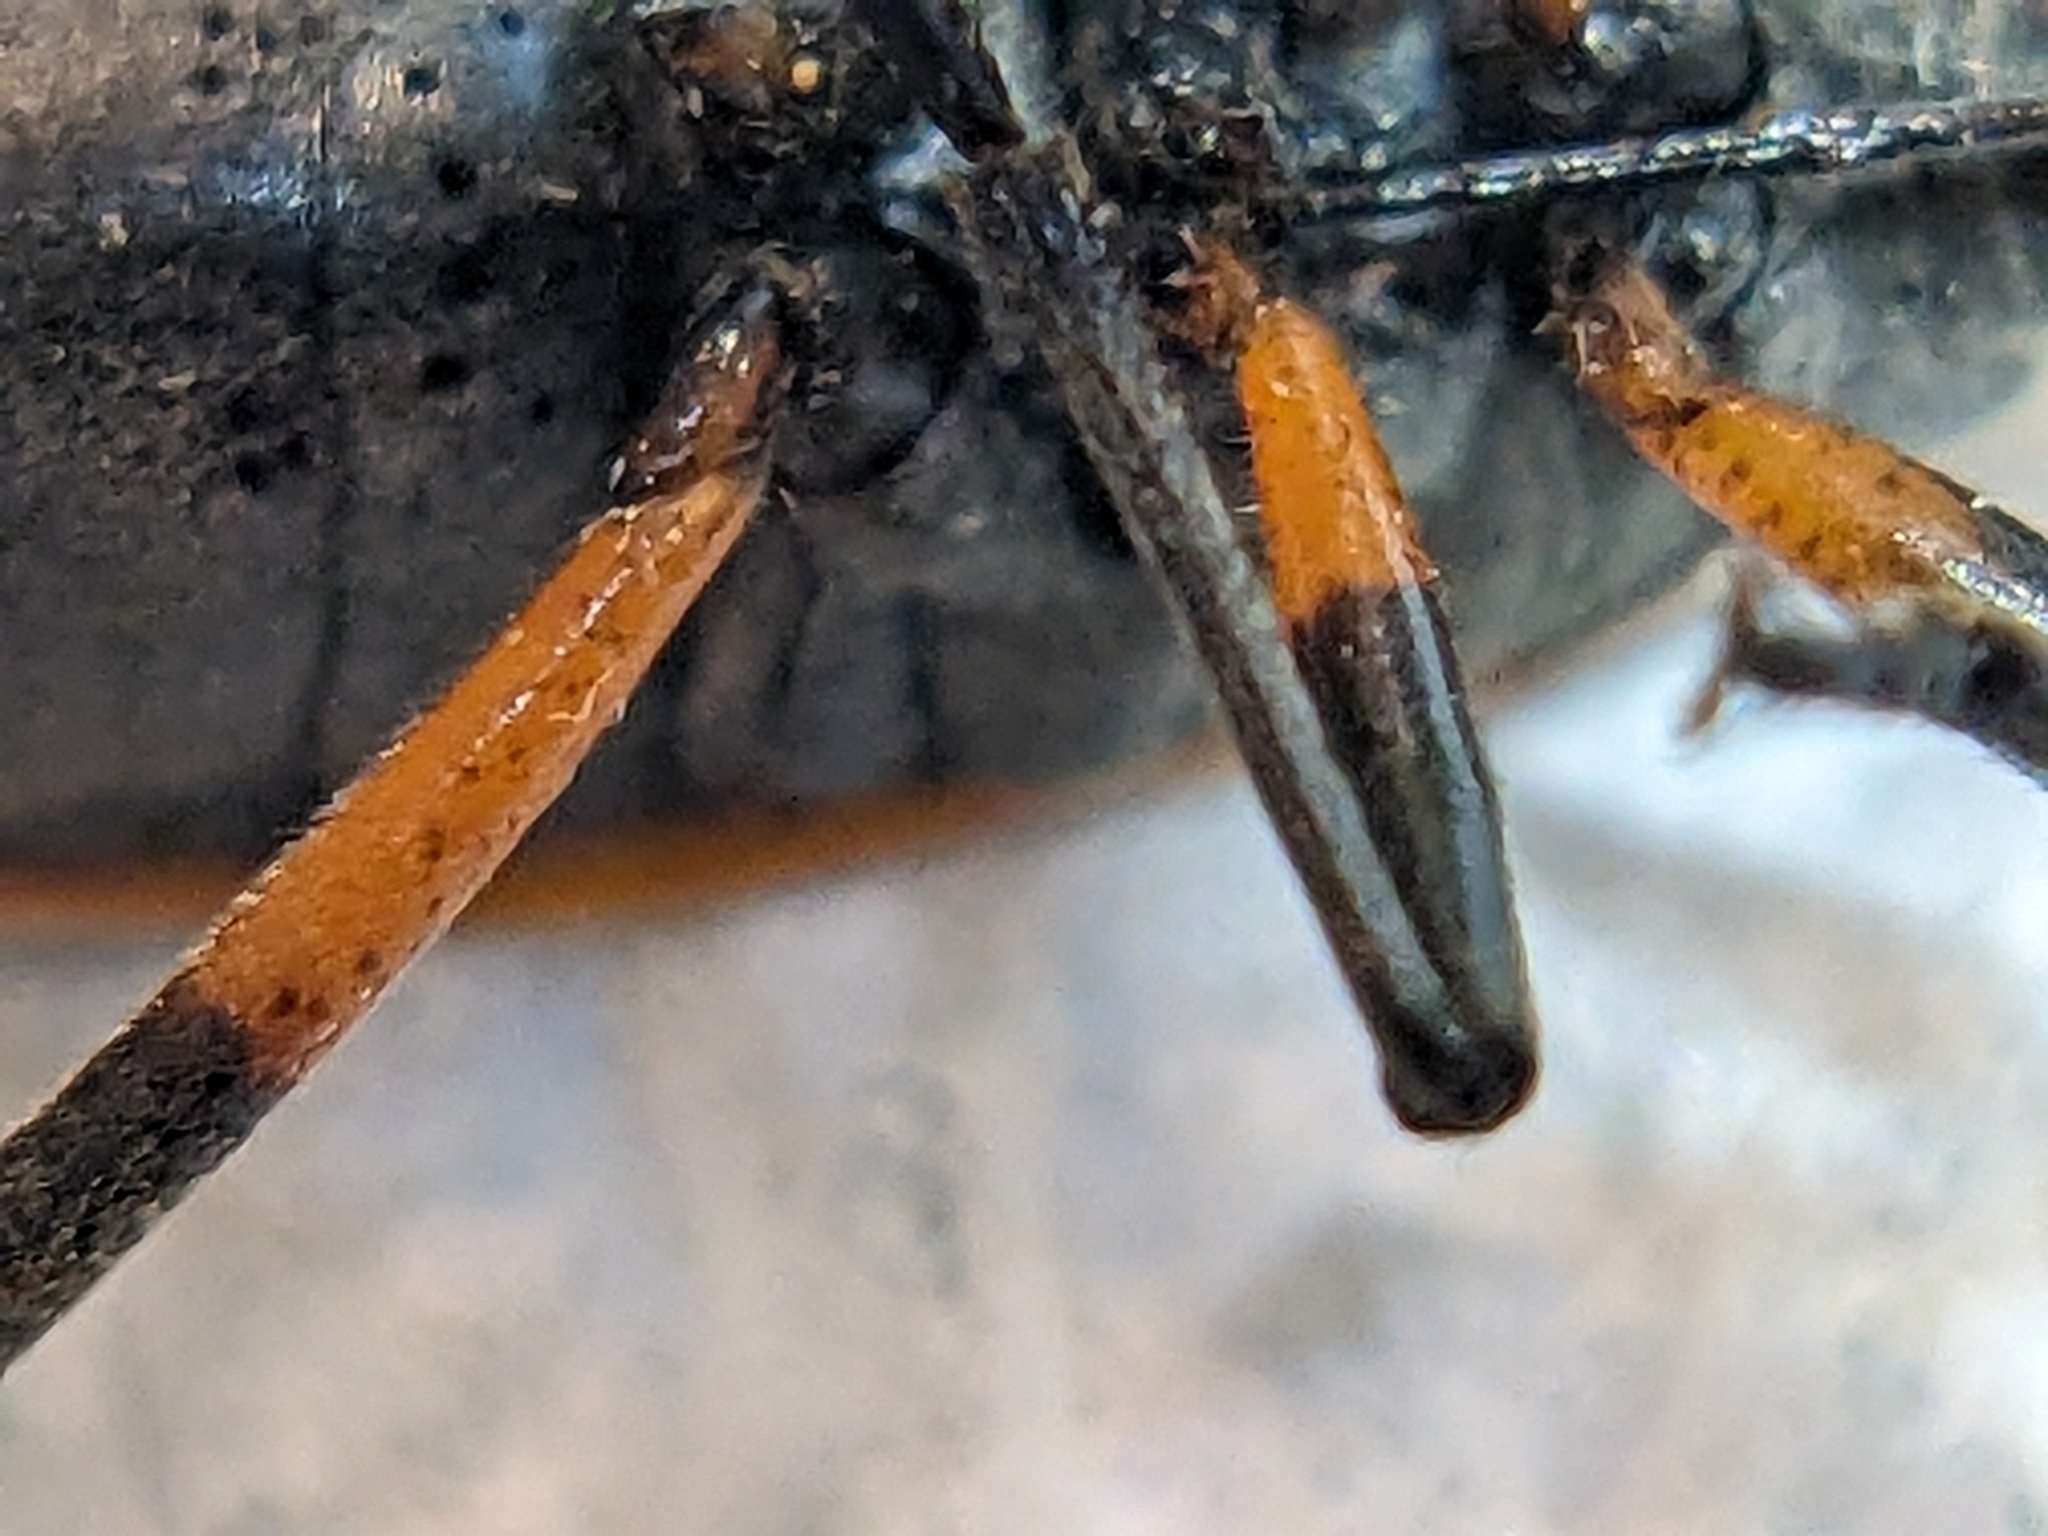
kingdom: Animalia
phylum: Arthropoda
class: Insecta
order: Hemiptera
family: Largidae
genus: Largus
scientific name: Largus succinctus
